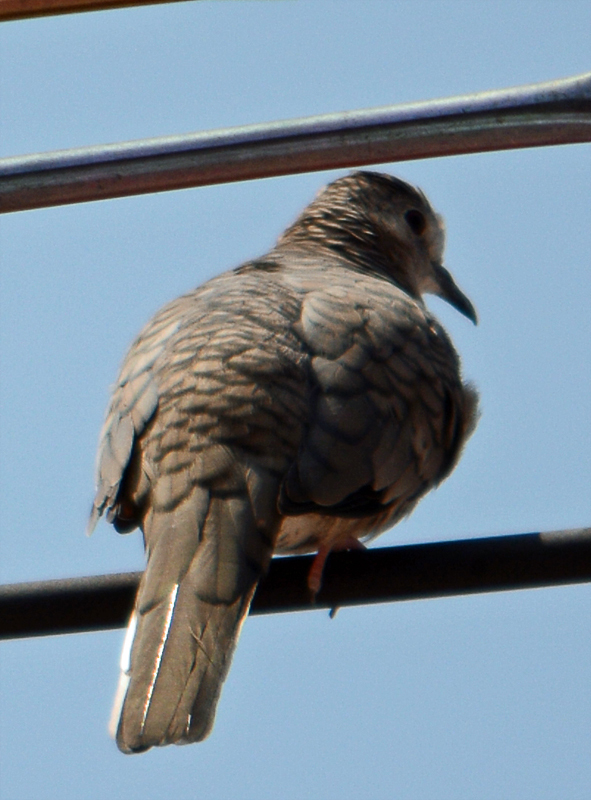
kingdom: Animalia
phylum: Chordata
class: Aves
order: Columbiformes
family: Columbidae
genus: Columbina
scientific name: Columbina inca
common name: Inca dove
